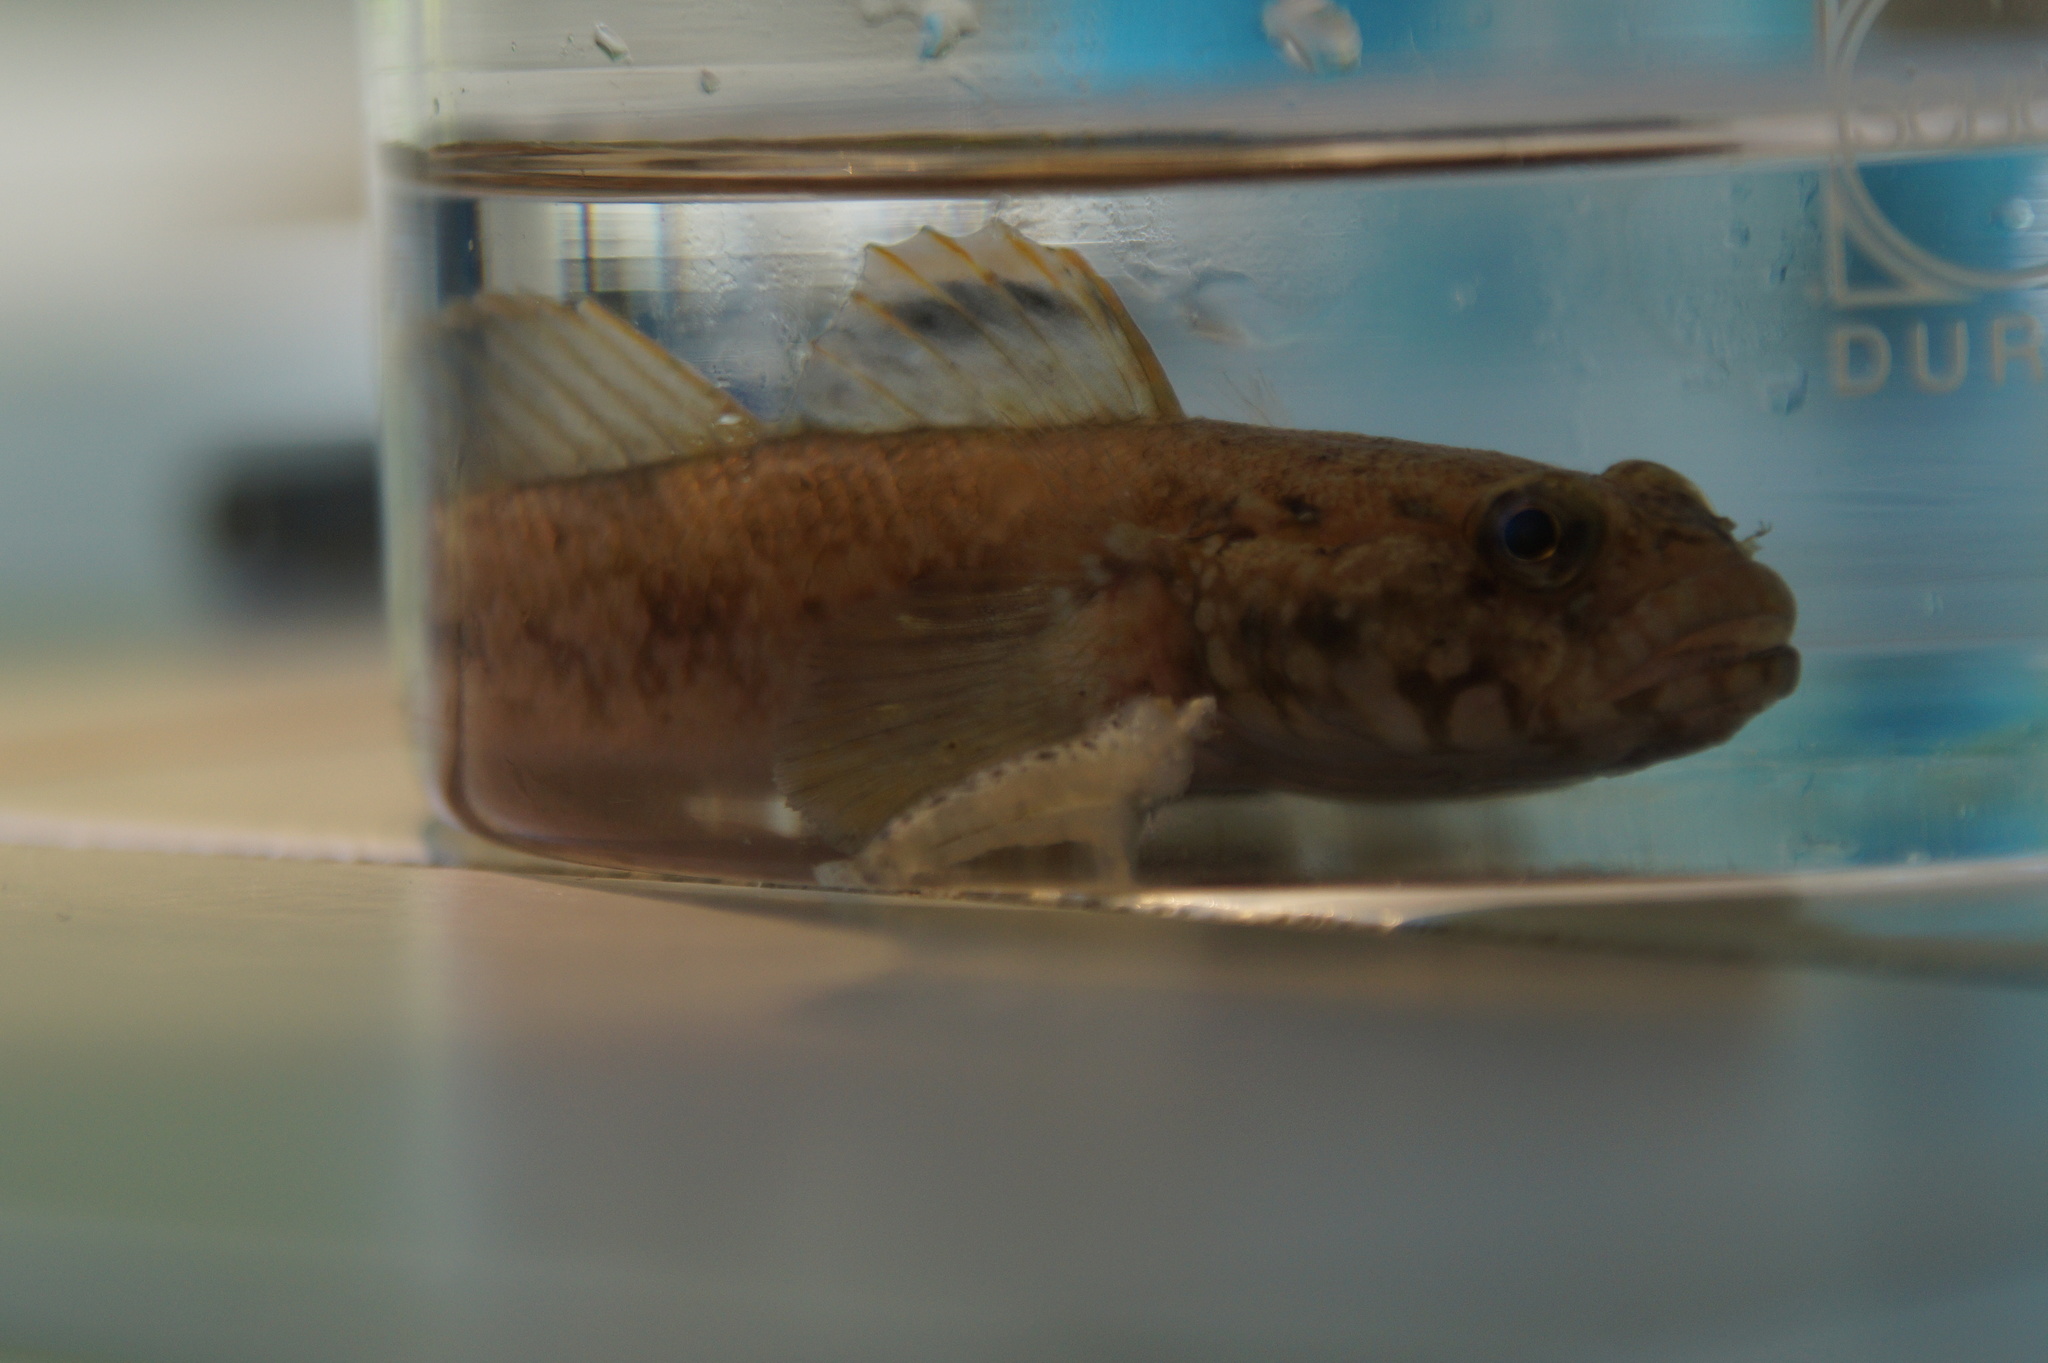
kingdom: Animalia
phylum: Chordata
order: Perciformes
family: Gobiidae
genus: Gobius
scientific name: Gobius paganellus
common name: Rock goby
